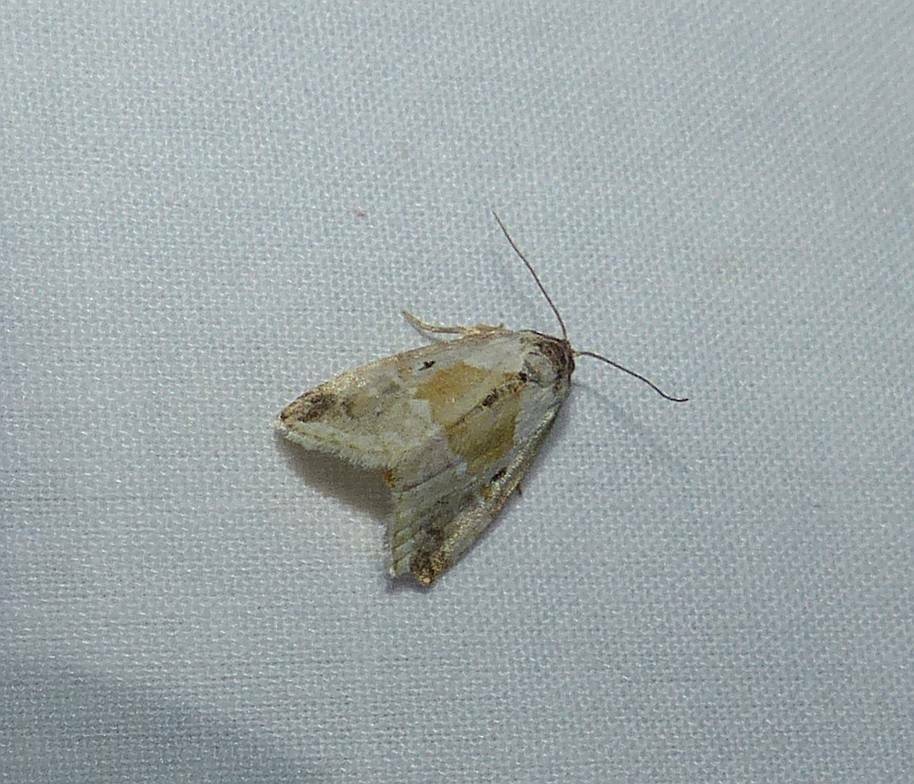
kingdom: Animalia
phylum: Arthropoda
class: Insecta
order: Lepidoptera
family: Noctuidae
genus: Maliattha
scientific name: Maliattha synochitis
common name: Black-dotted glyph
